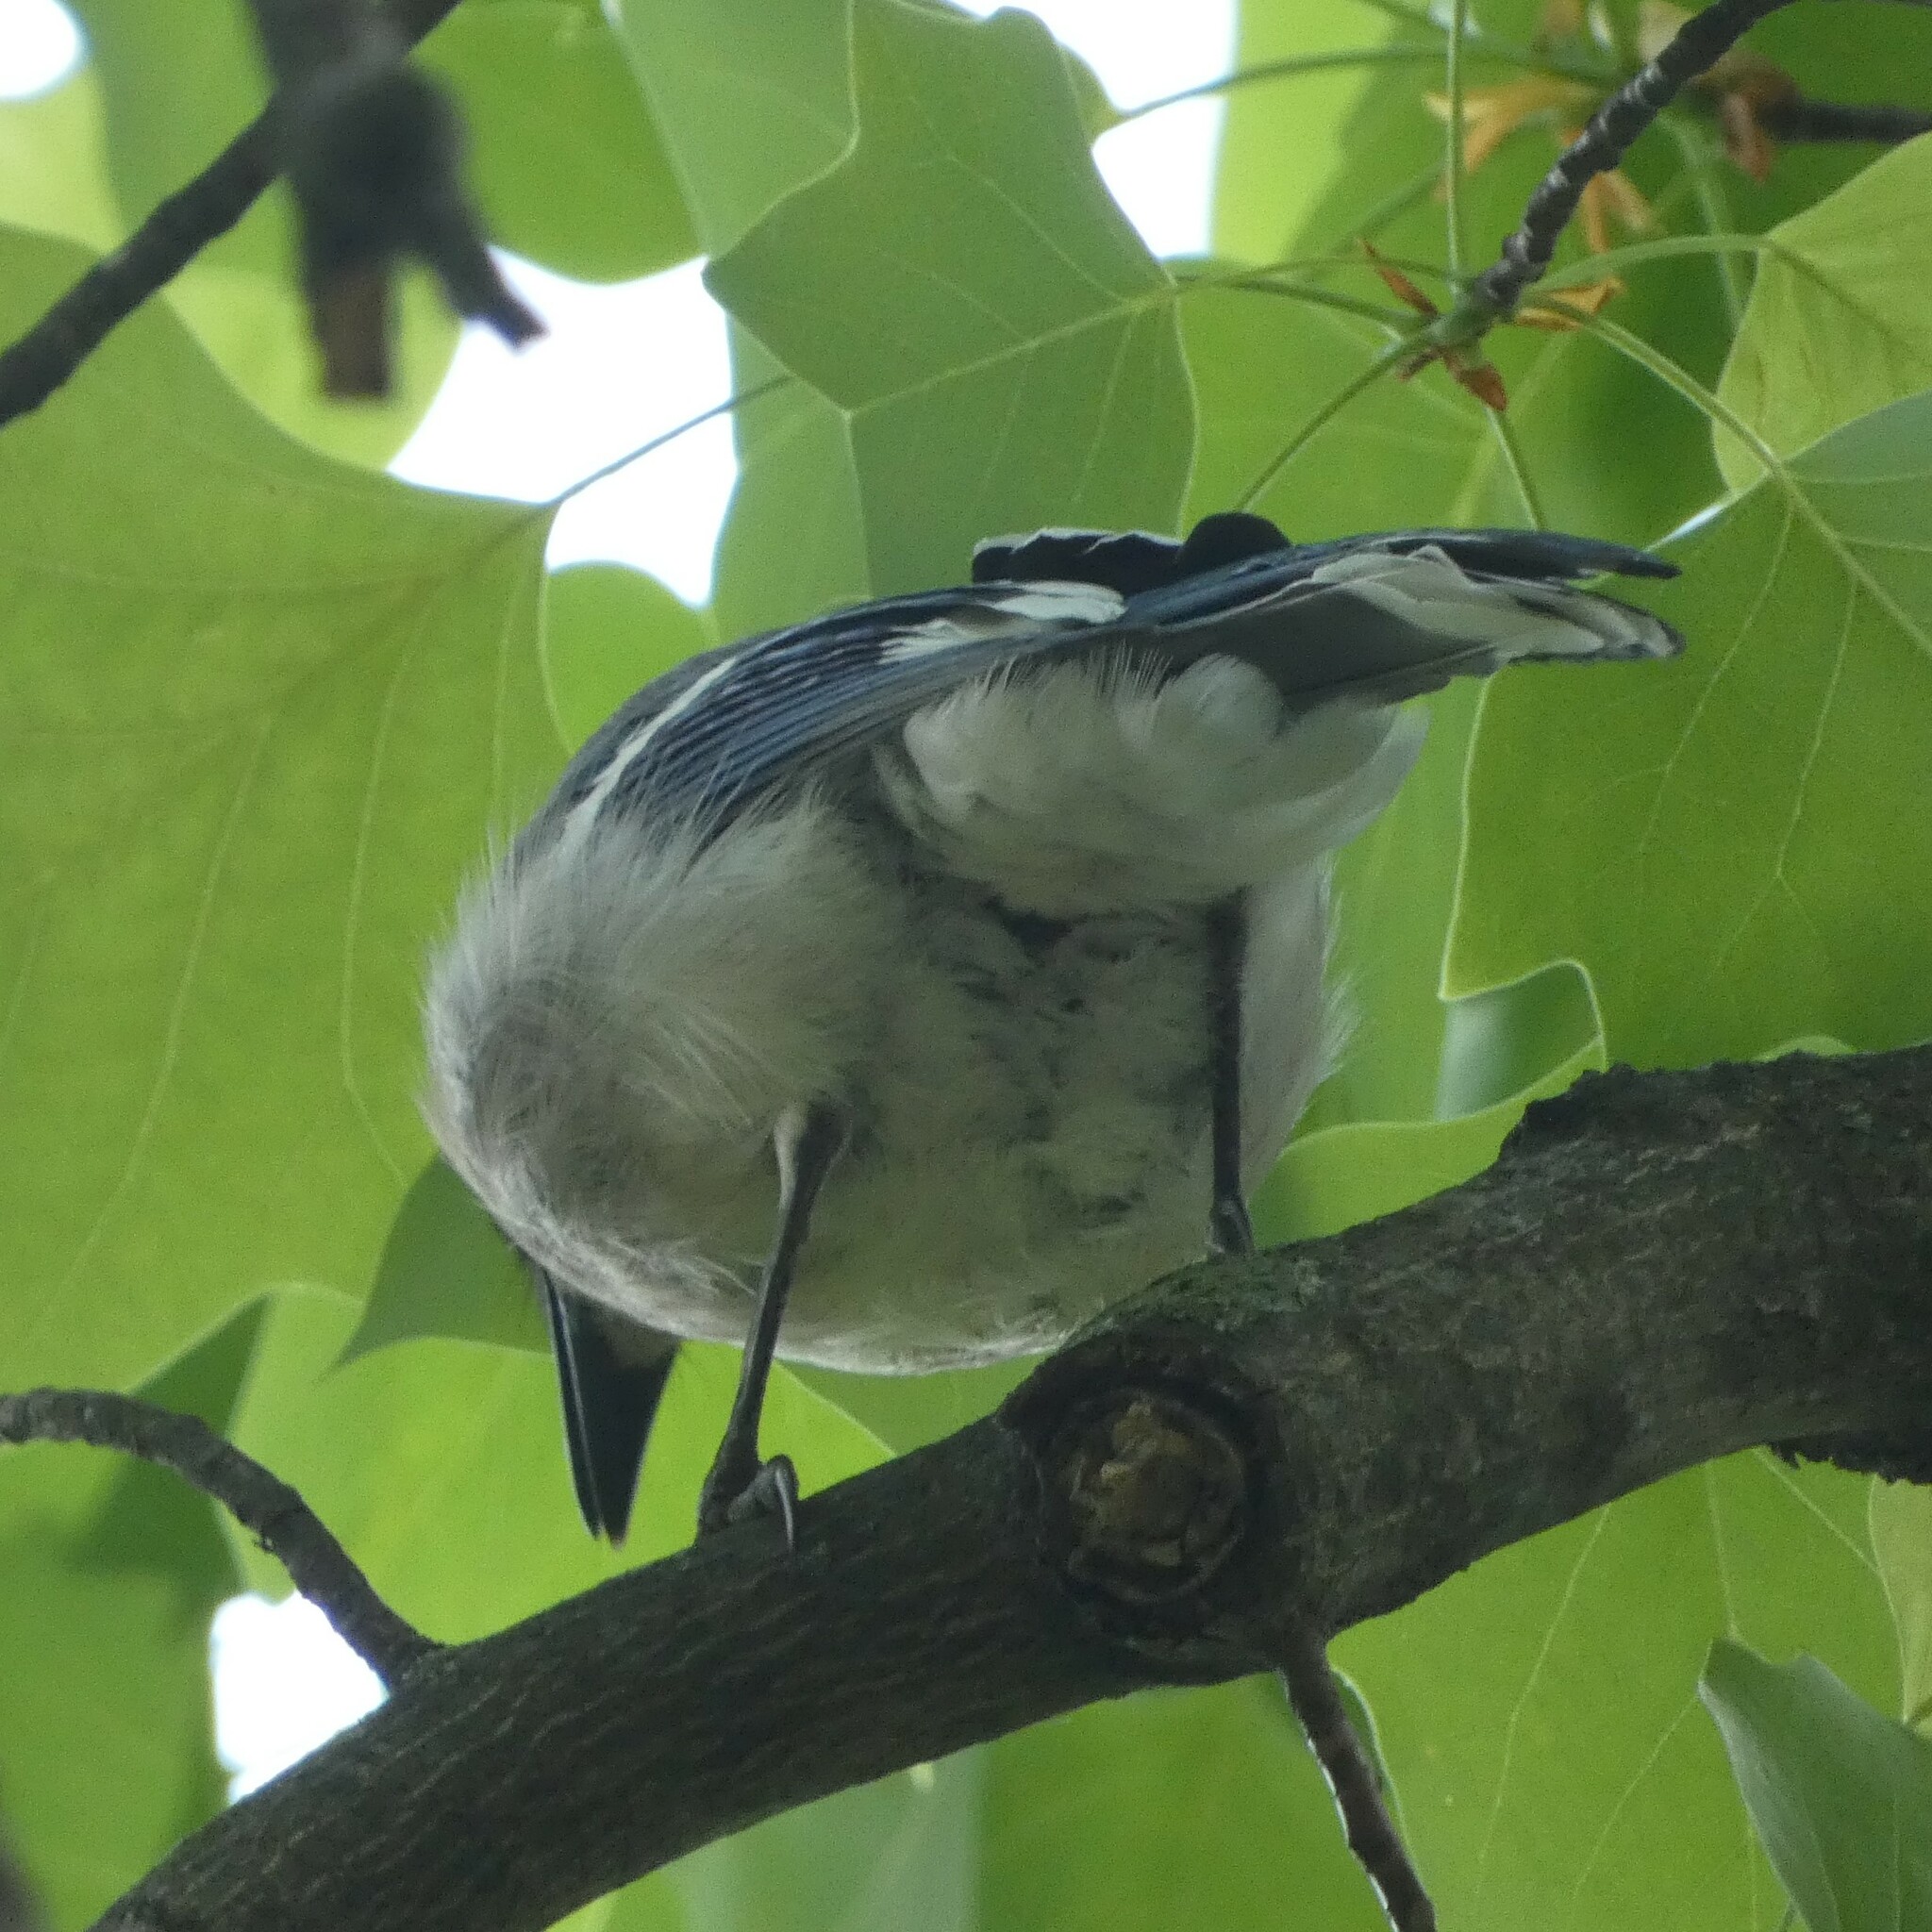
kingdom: Animalia
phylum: Chordata
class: Aves
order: Passeriformes
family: Corvidae
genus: Cyanocitta
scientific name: Cyanocitta cristata
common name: Blue jay
